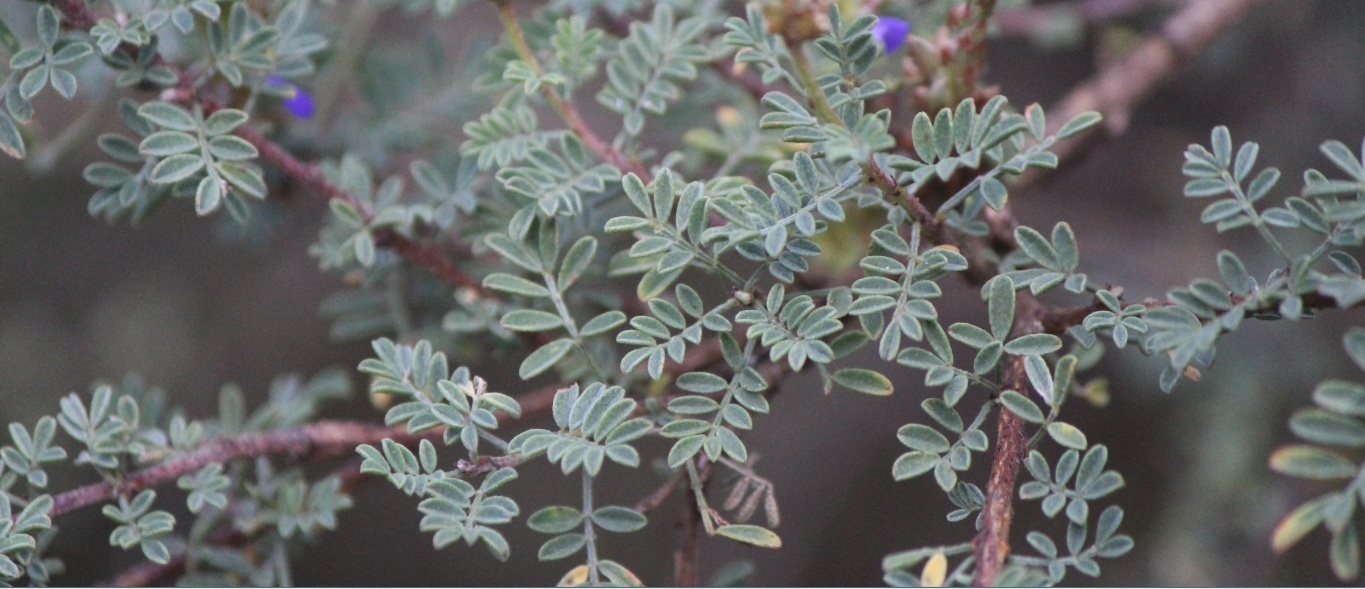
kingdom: Plantae
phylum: Tracheophyta
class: Magnoliopsida
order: Fabales
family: Fabaceae
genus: Dalea
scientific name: Dalea bicolor
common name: Silver prairie-clover
